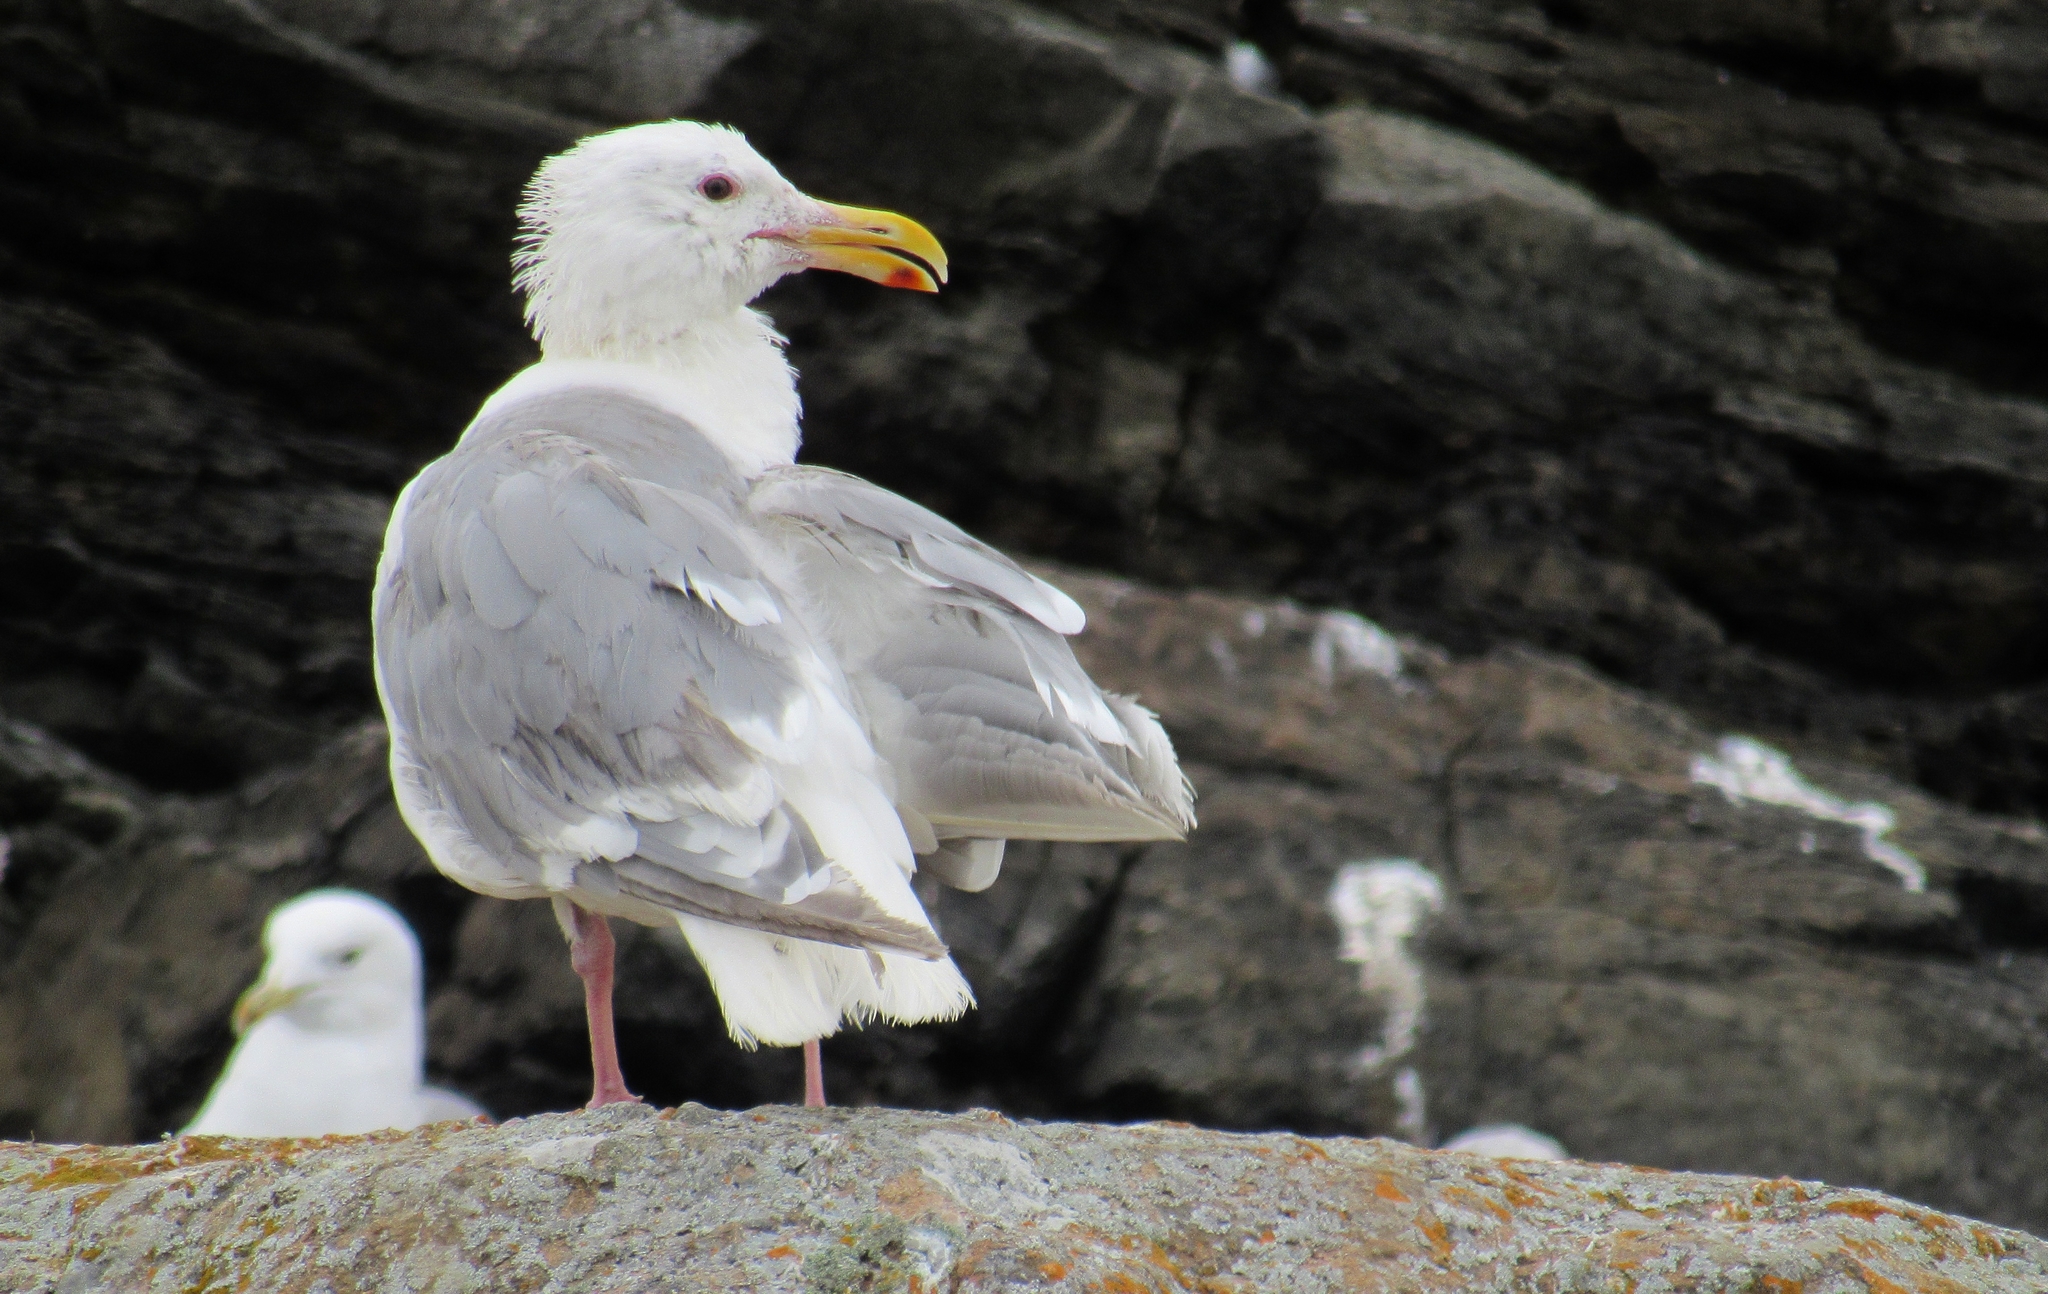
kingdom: Animalia
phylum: Chordata
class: Aves
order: Charadriiformes
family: Laridae
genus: Larus
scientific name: Larus glaucescens
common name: Glaucous-winged gull
